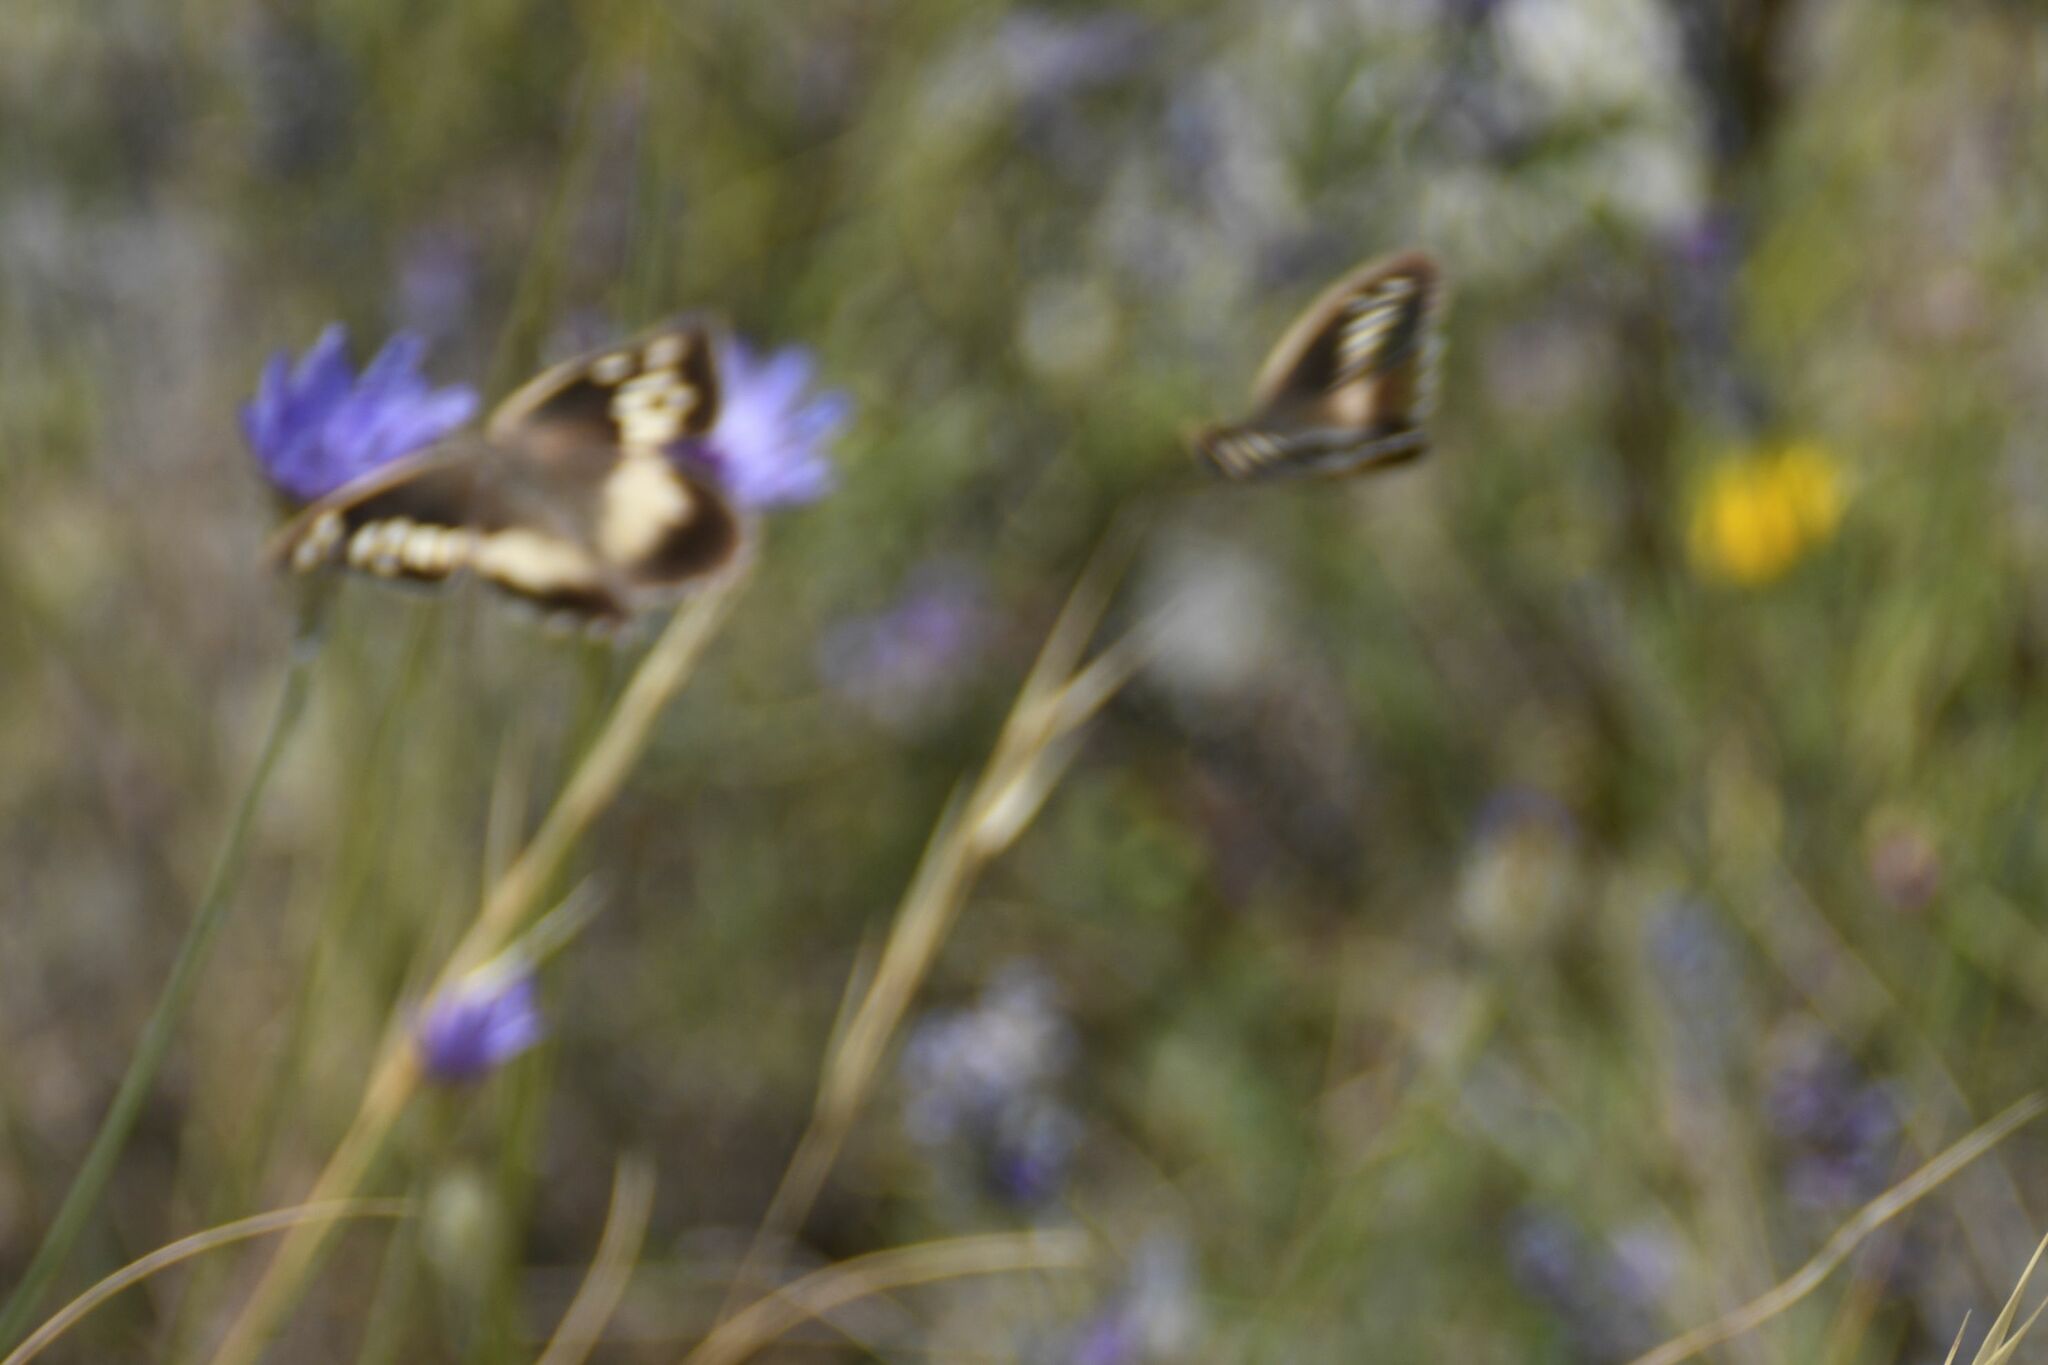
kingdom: Animalia
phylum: Arthropoda
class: Insecta
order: Lepidoptera
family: Nymphalidae
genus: Satyrus
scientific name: Satyrus briseis
